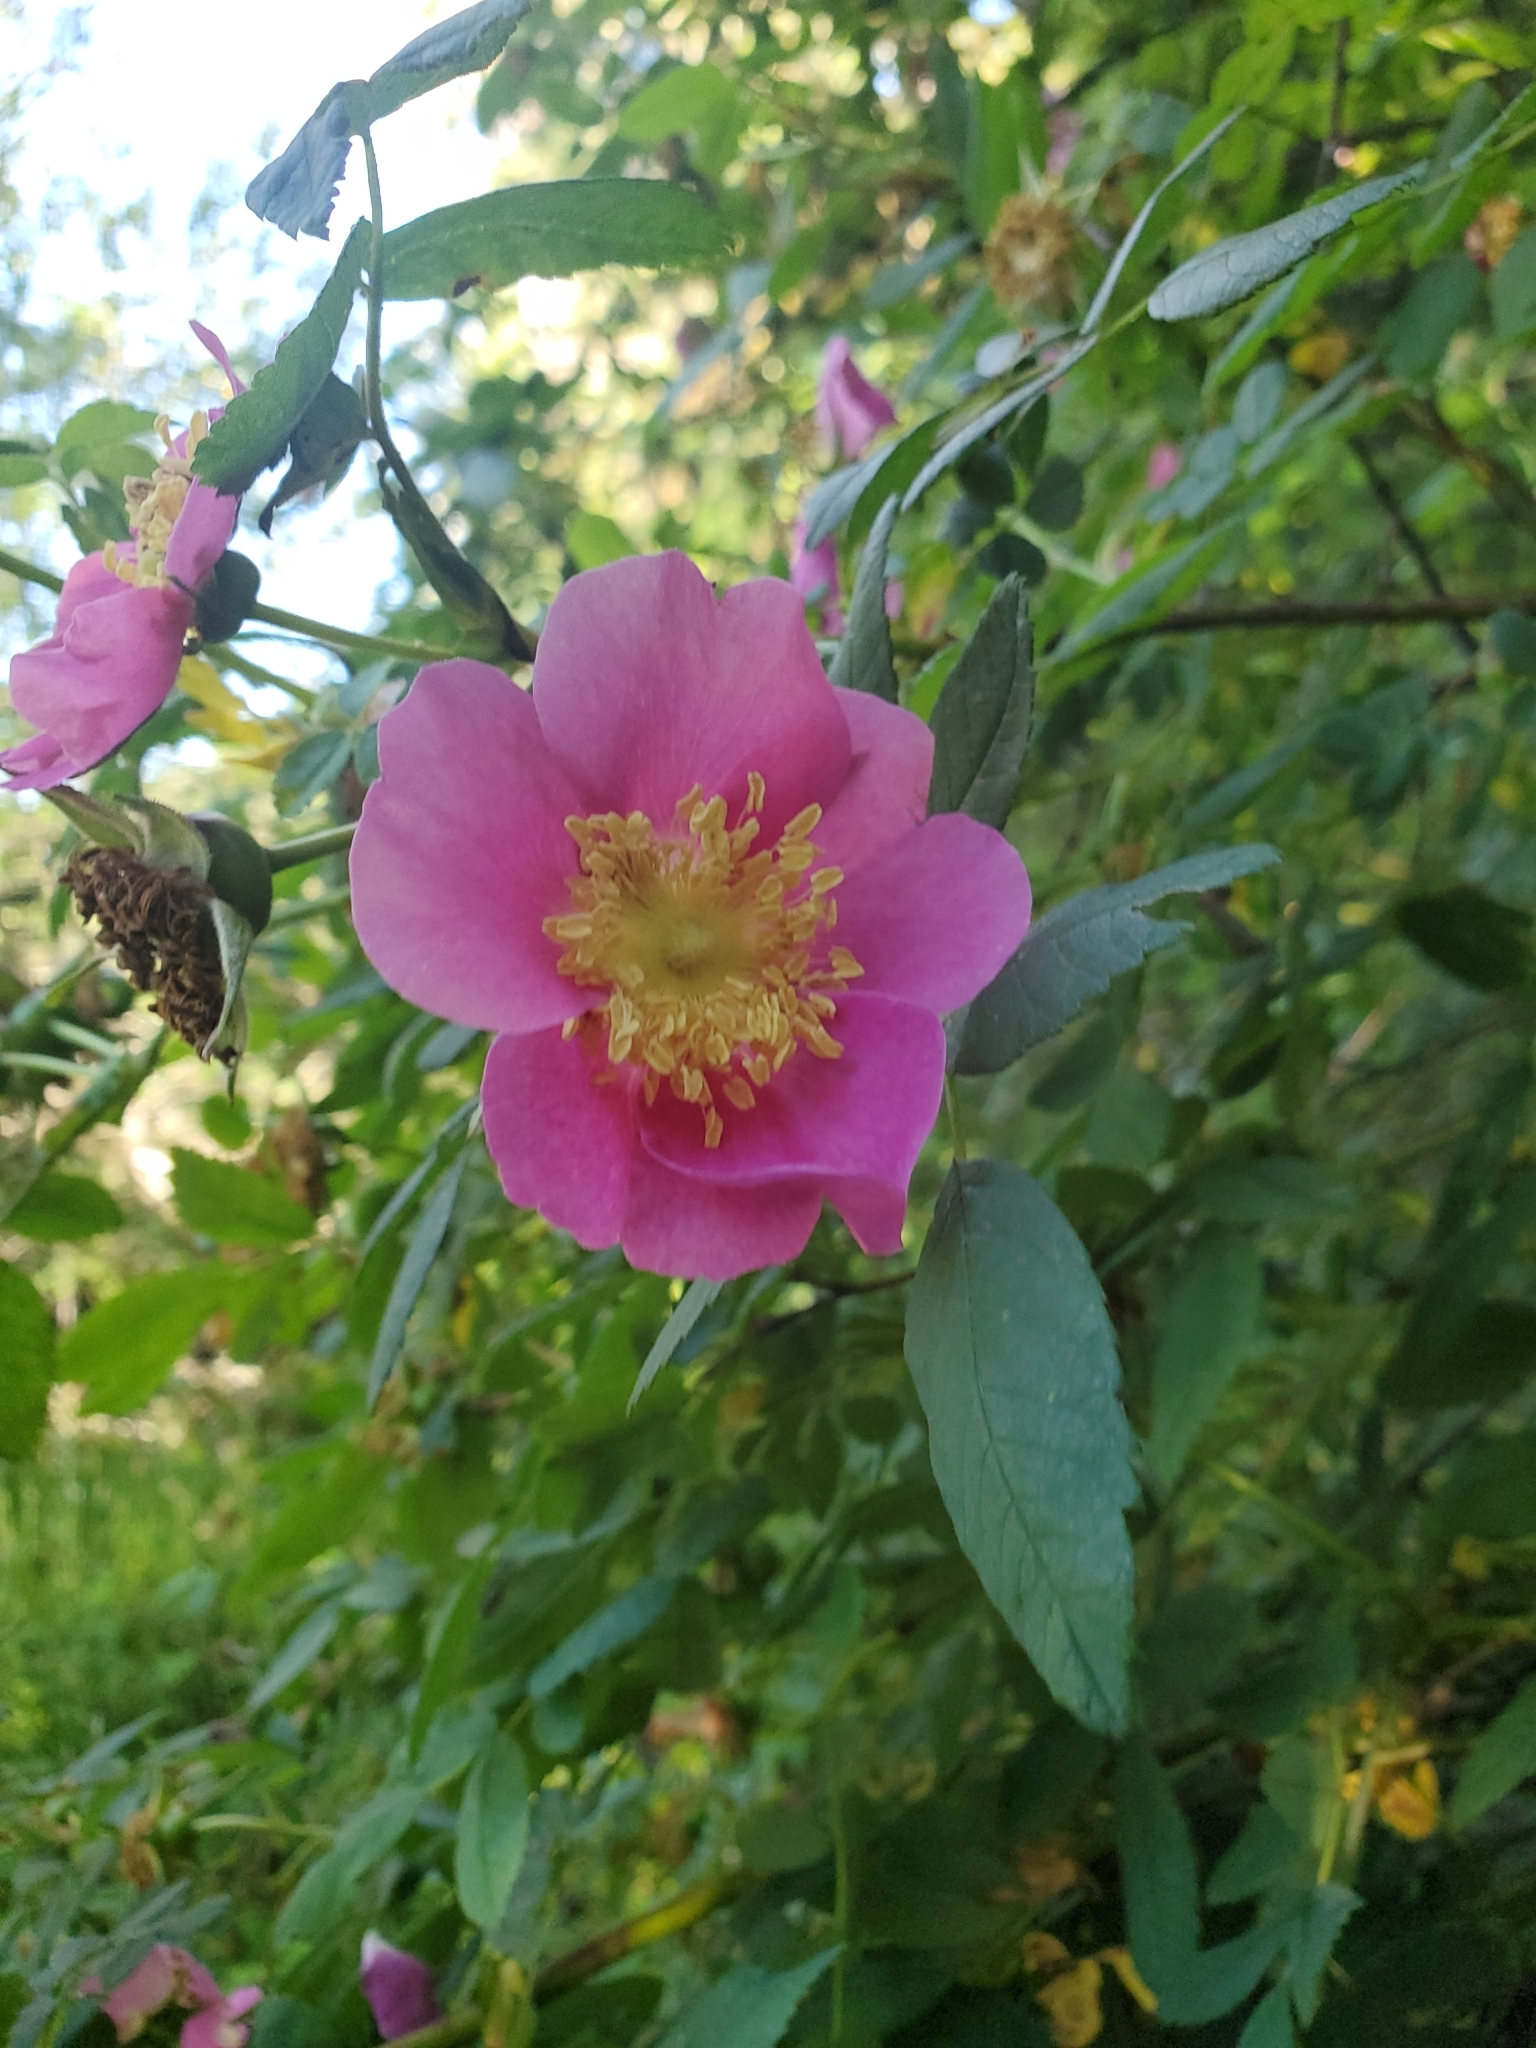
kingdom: Plantae
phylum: Tracheophyta
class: Magnoliopsida
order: Rosales
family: Rosaceae
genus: Rosa
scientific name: Rosa nutkana
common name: Nootka rose
